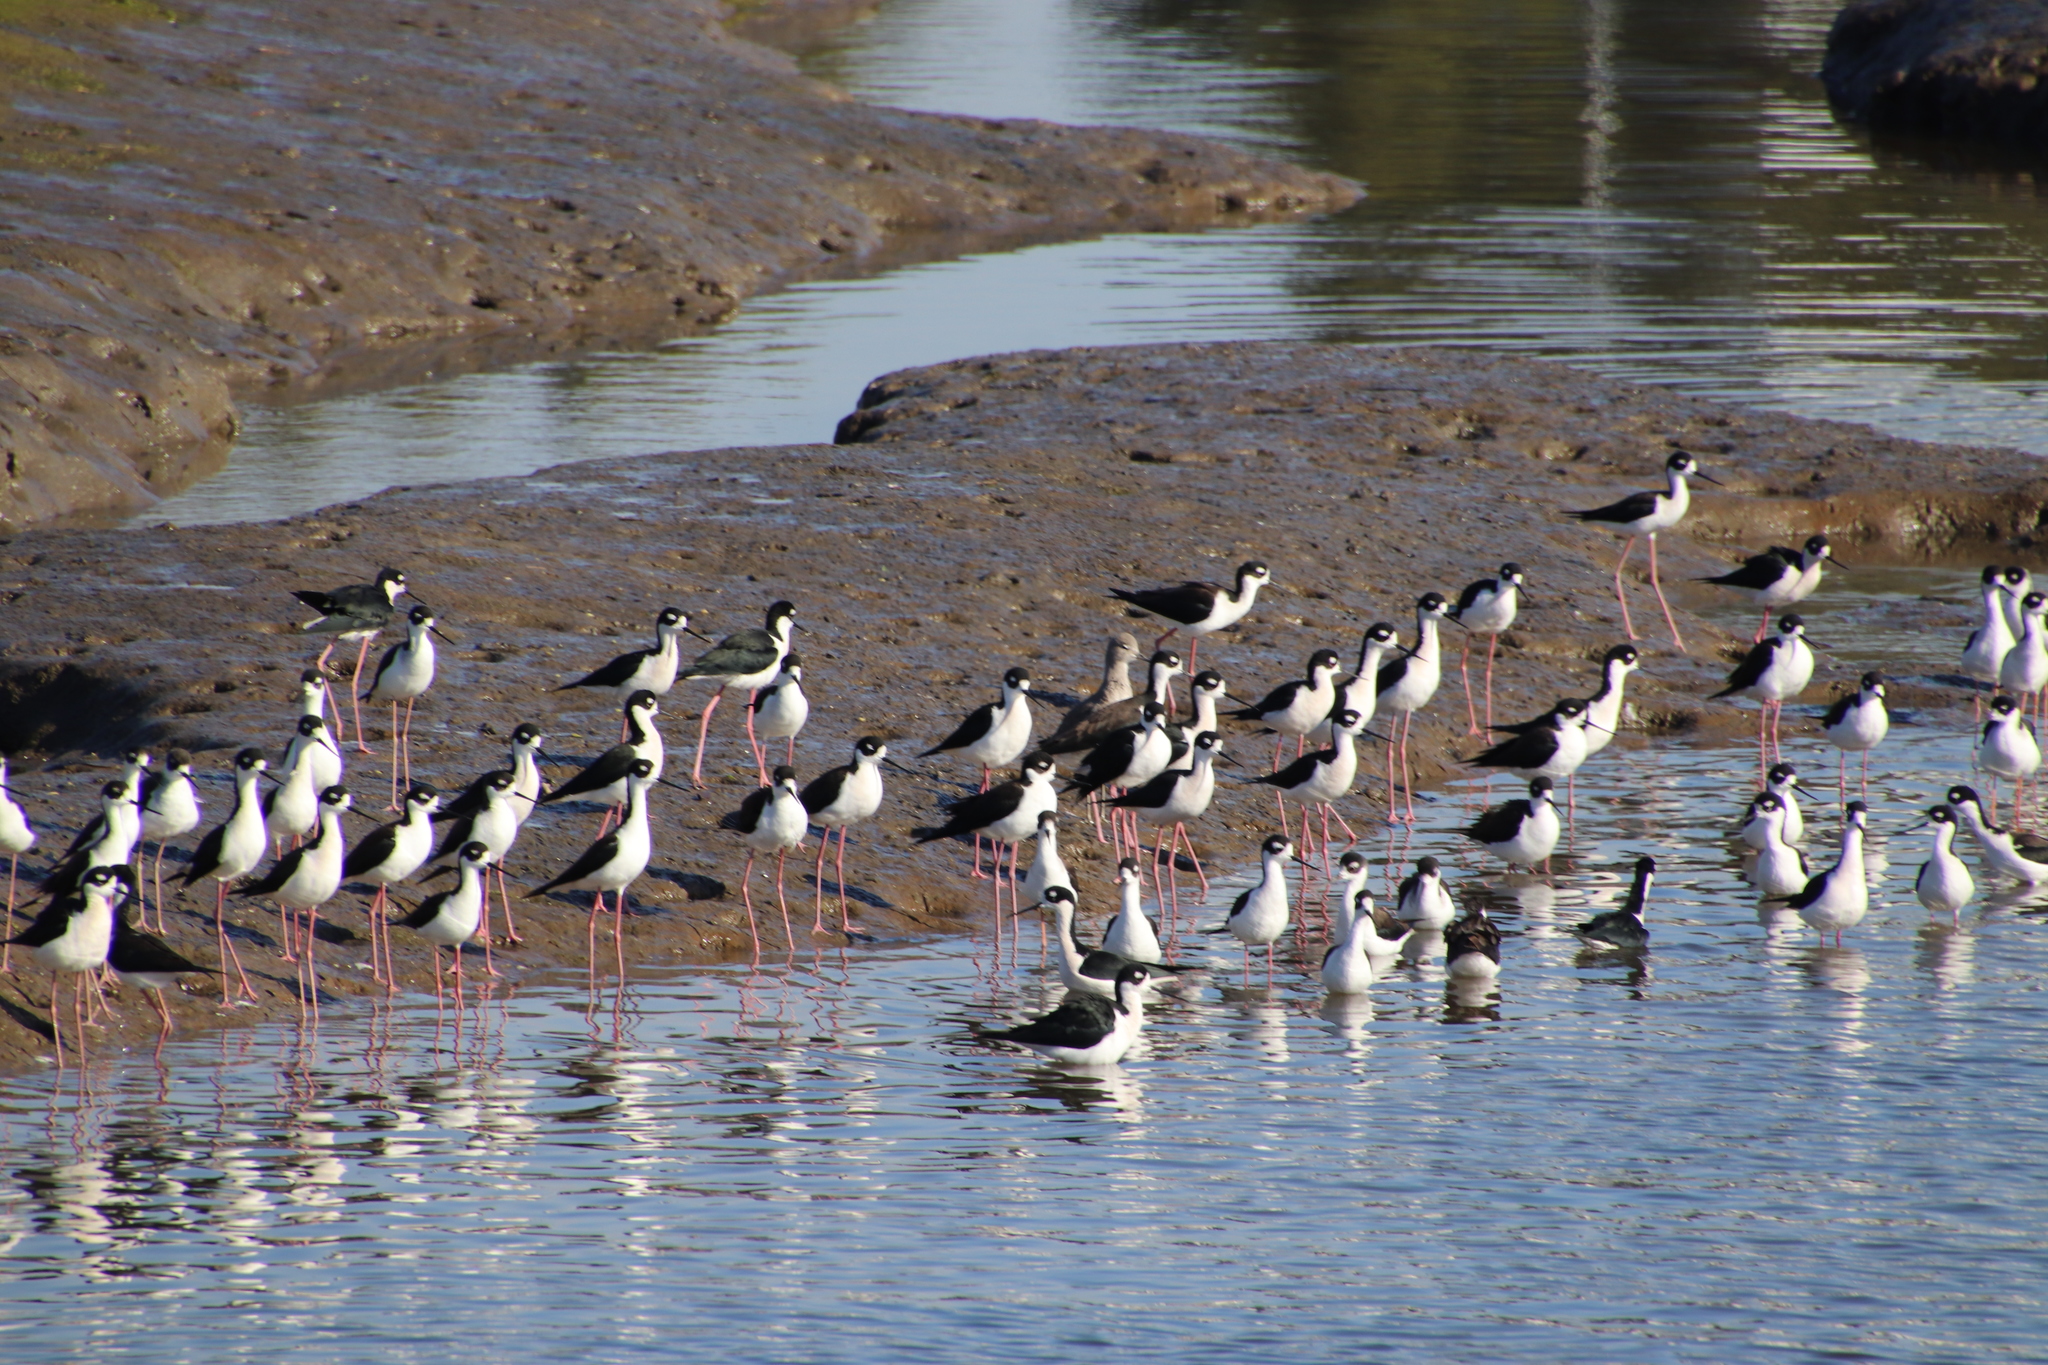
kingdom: Animalia
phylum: Chordata
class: Aves
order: Charadriiformes
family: Recurvirostridae
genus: Himantopus
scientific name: Himantopus mexicanus
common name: Black-necked stilt
